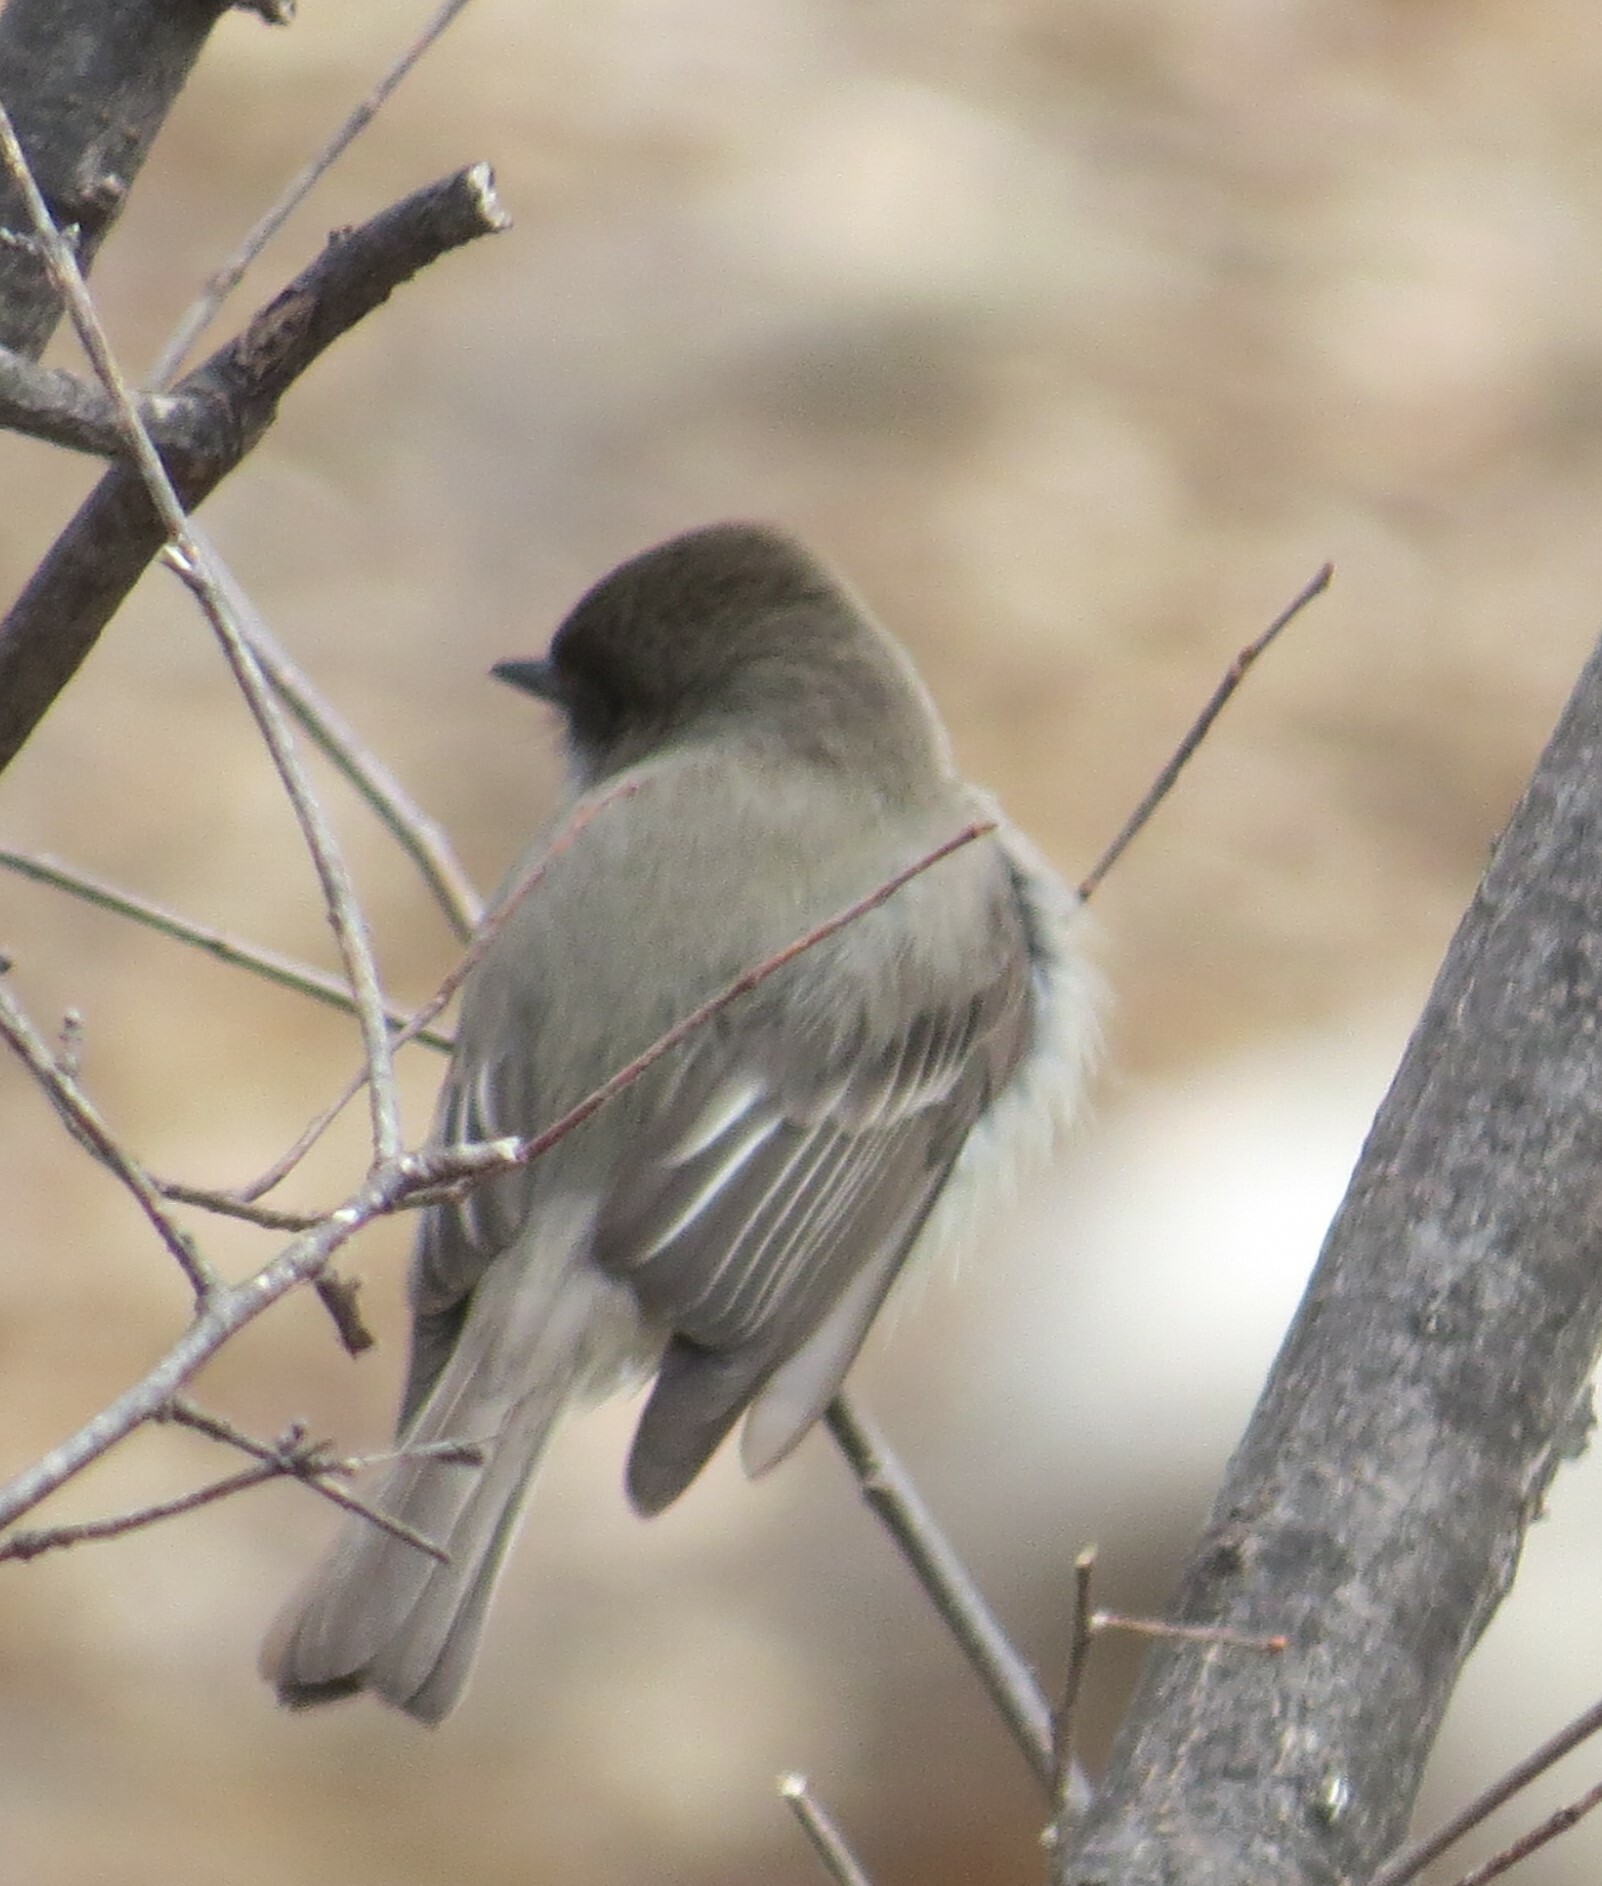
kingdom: Animalia
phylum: Chordata
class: Aves
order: Passeriformes
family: Tyrannidae
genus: Sayornis
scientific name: Sayornis phoebe
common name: Eastern phoebe
